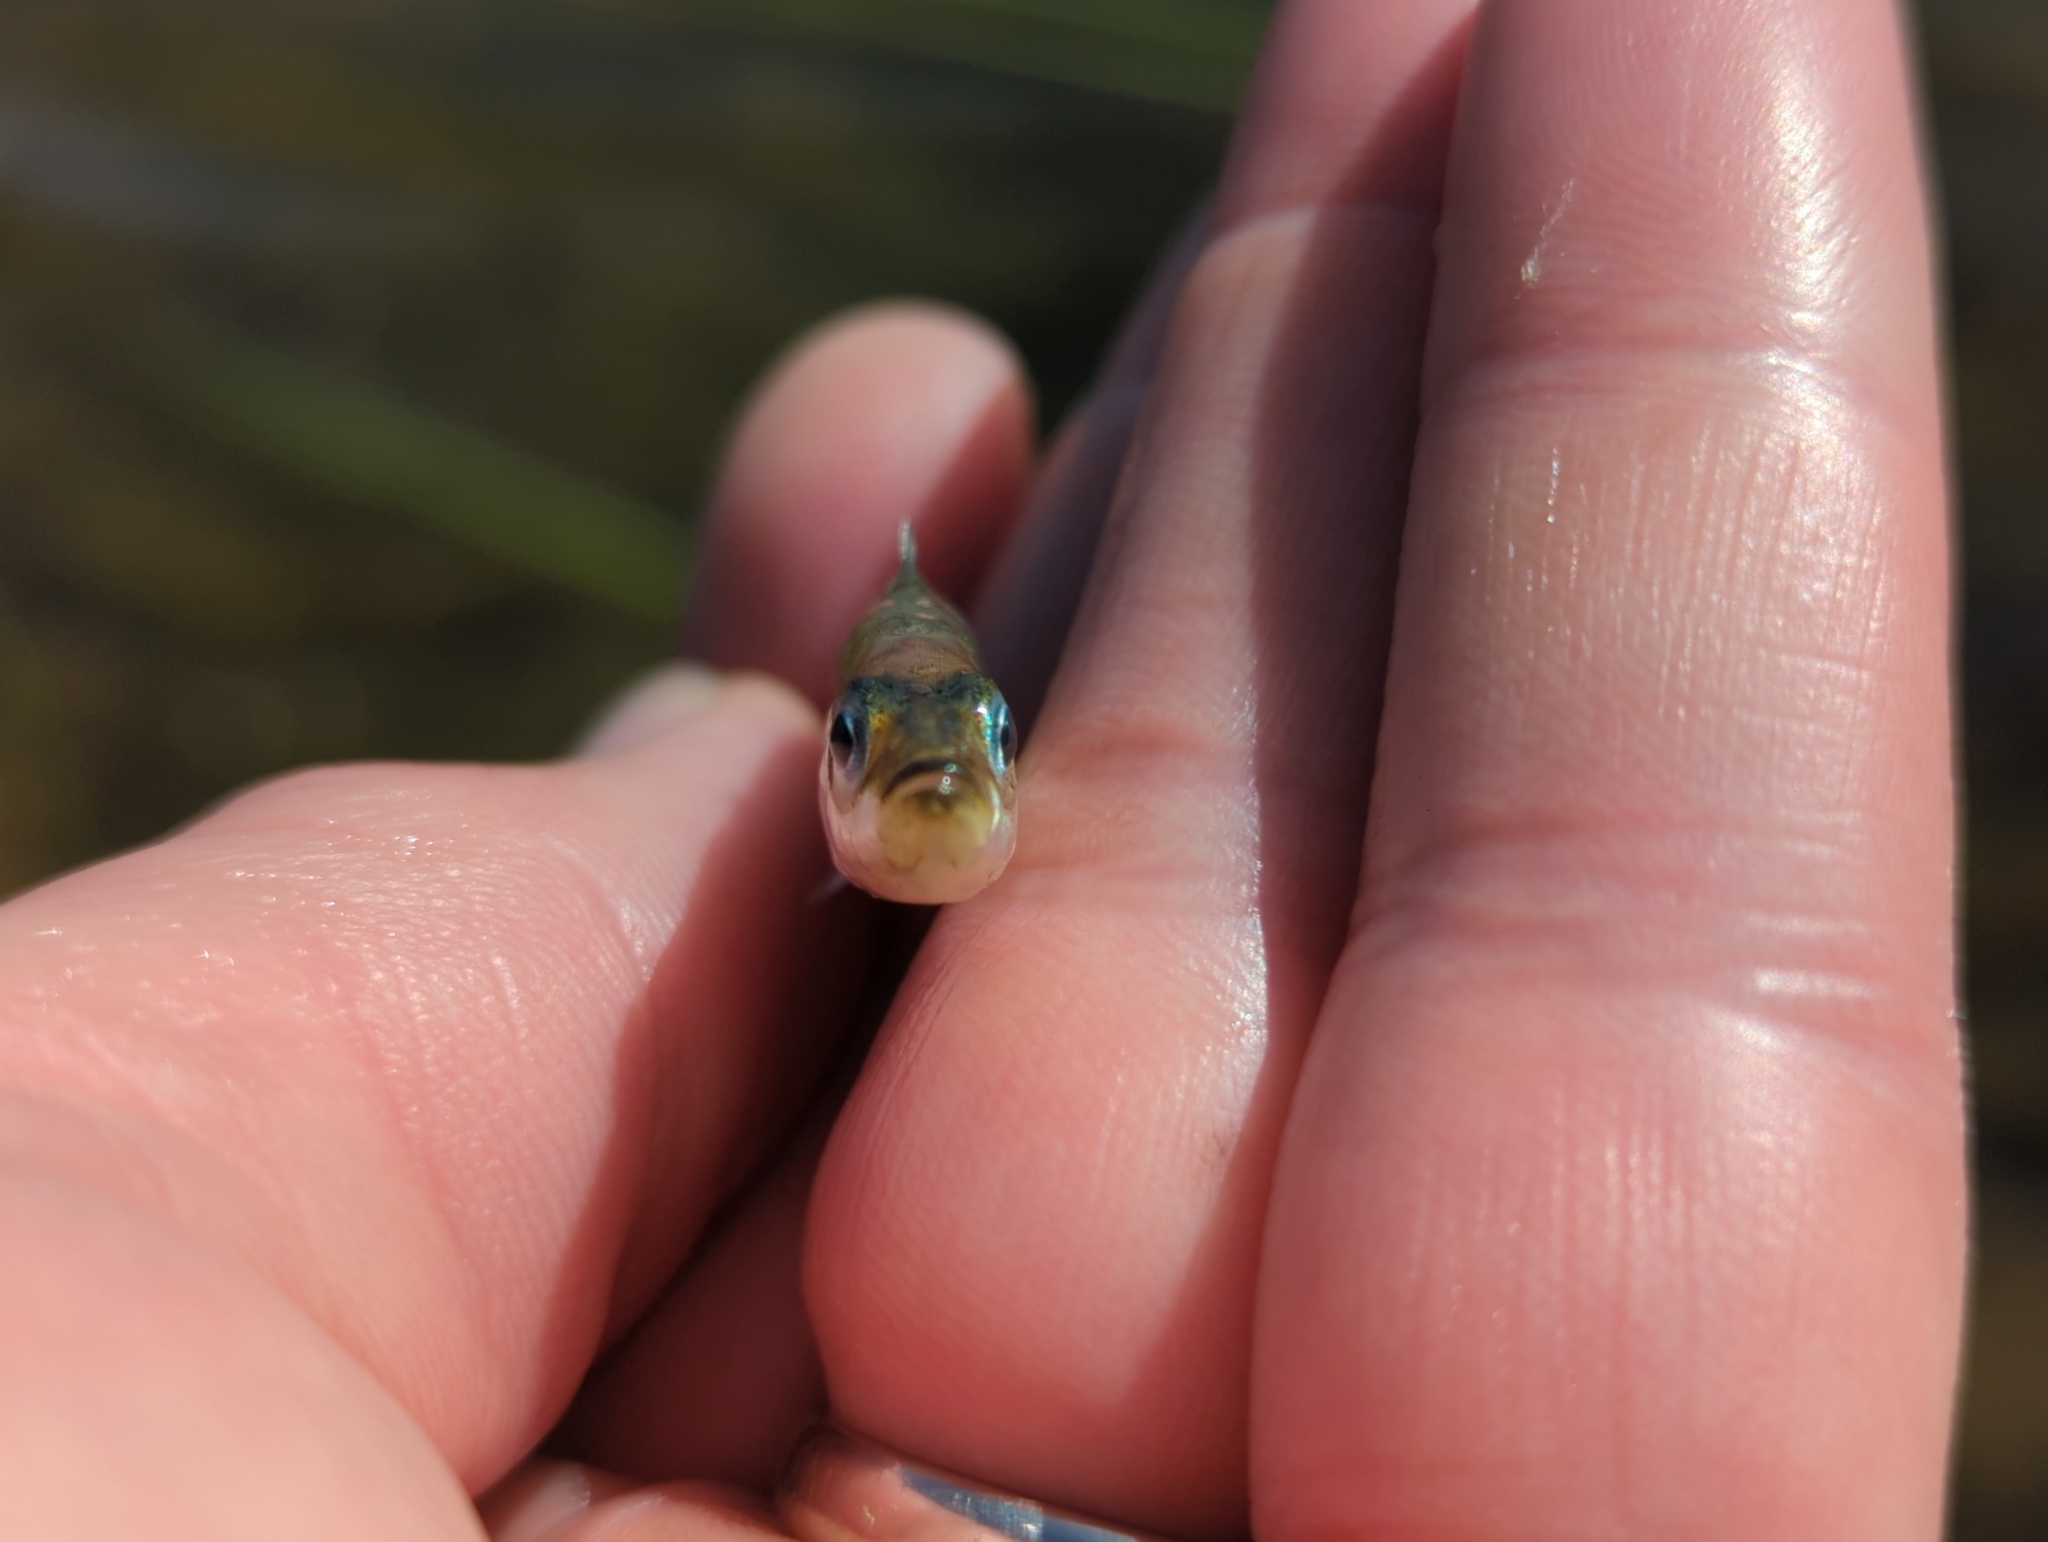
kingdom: Animalia
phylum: Chordata
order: Gasterosteiformes
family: Gasterosteidae
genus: Gasterosteus
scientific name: Gasterosteus aculeatus
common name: Three-spined stickleback
